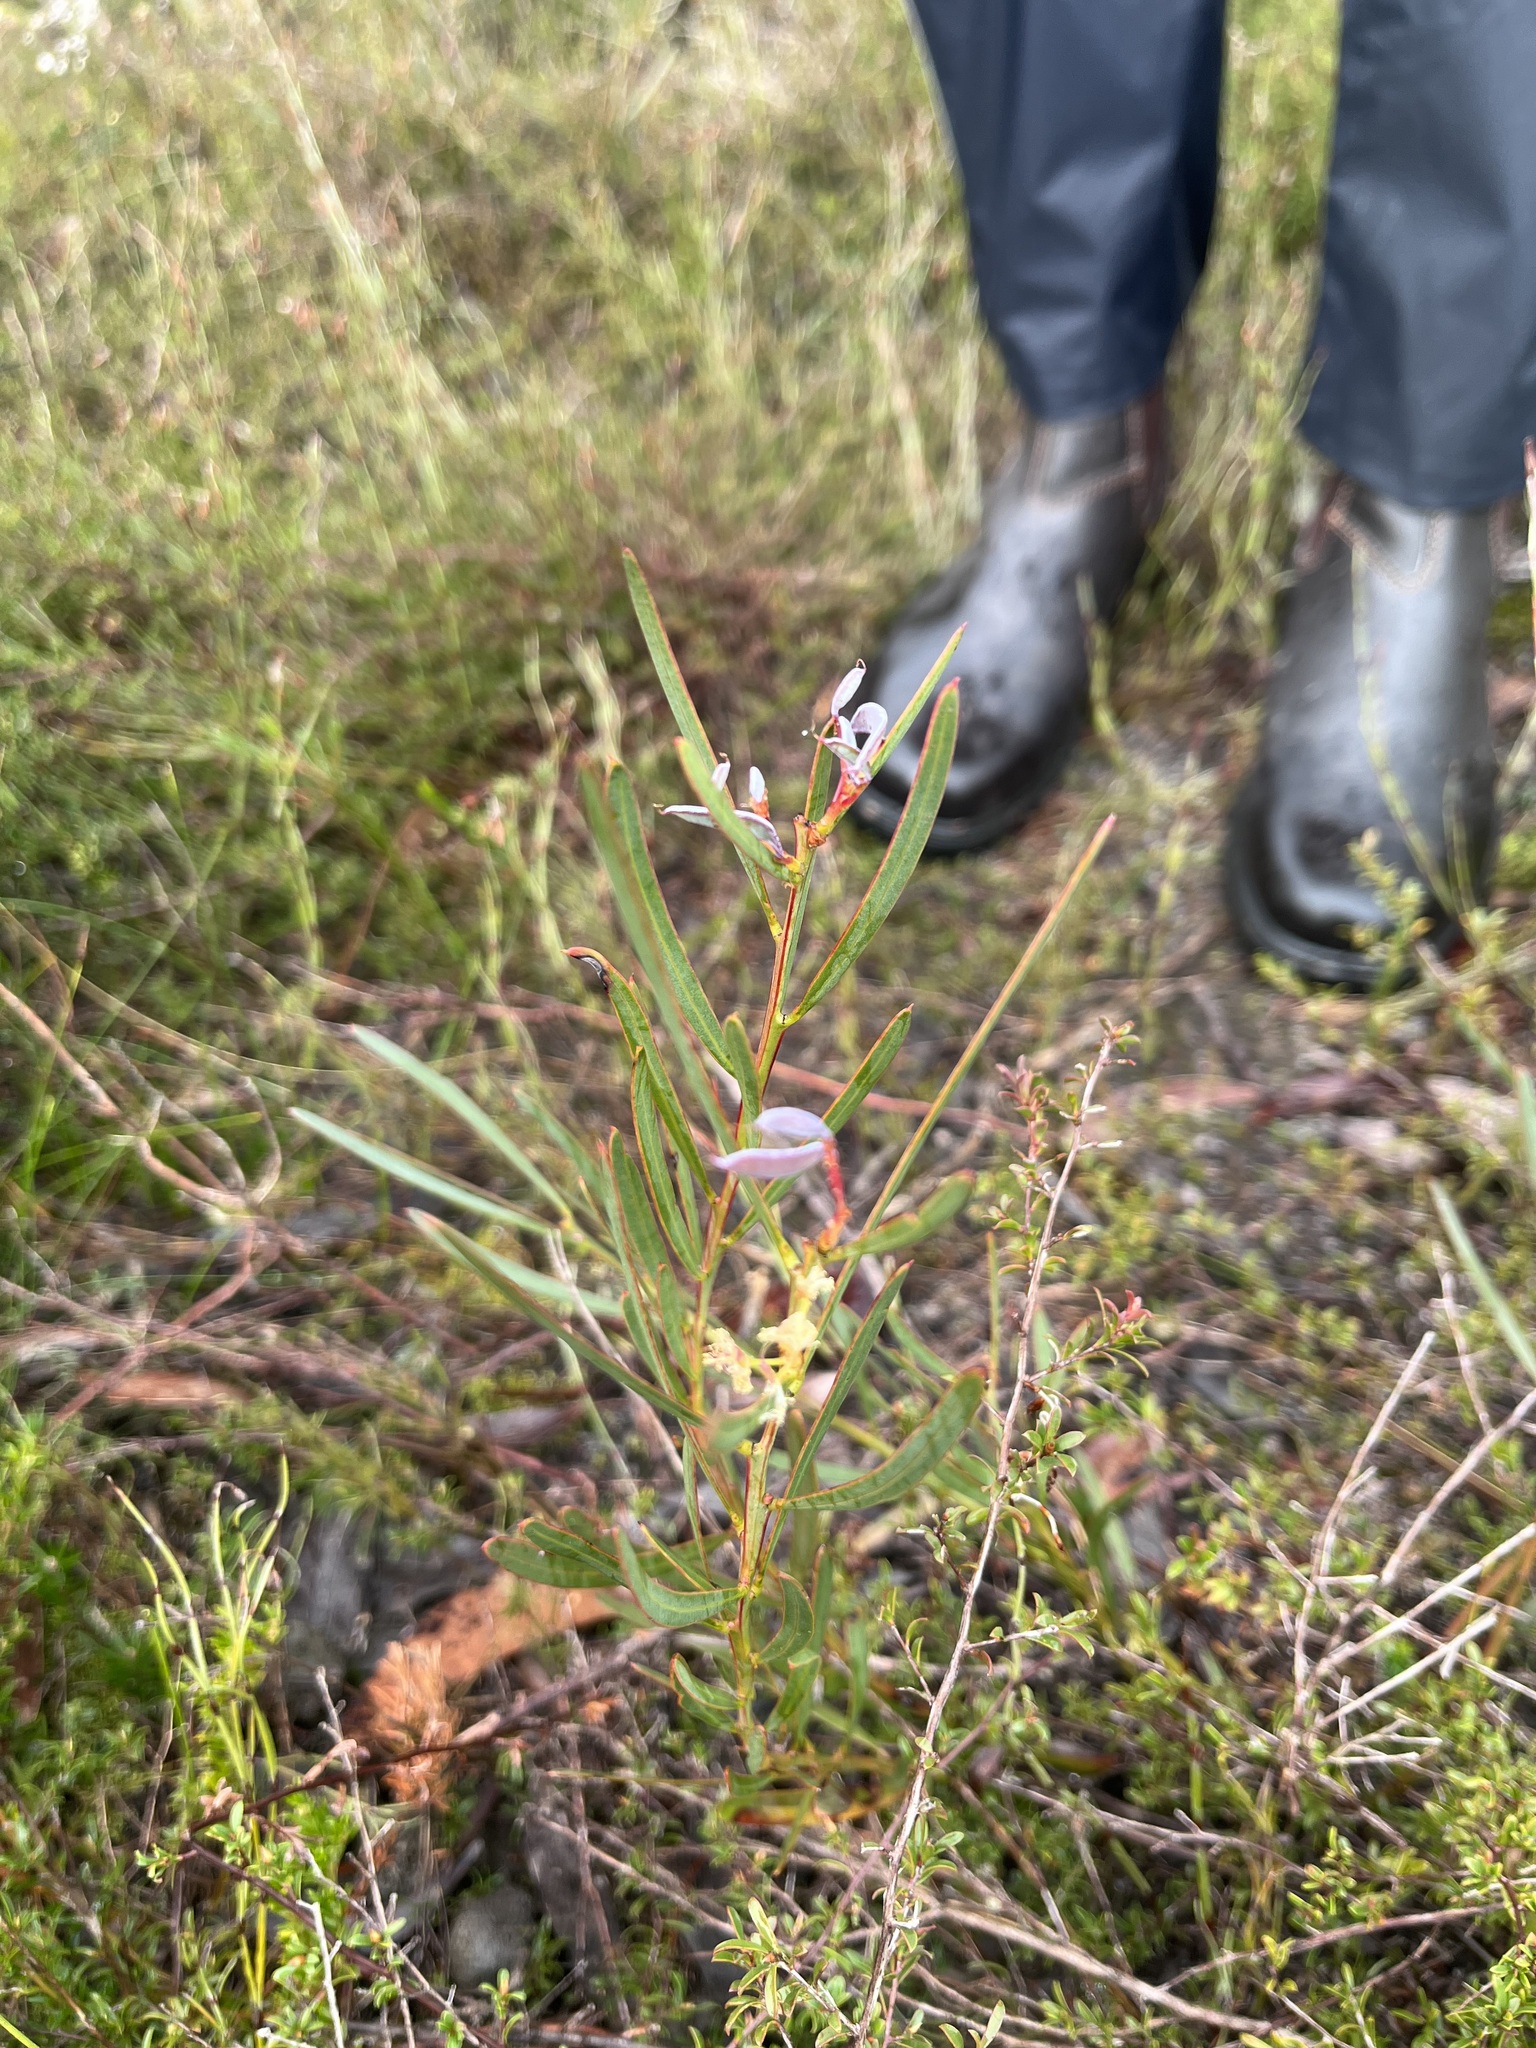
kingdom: Plantae
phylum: Tracheophyta
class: Magnoliopsida
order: Fabales
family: Fabaceae
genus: Acacia
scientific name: Acacia suaveolens
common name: Sweet acacia
